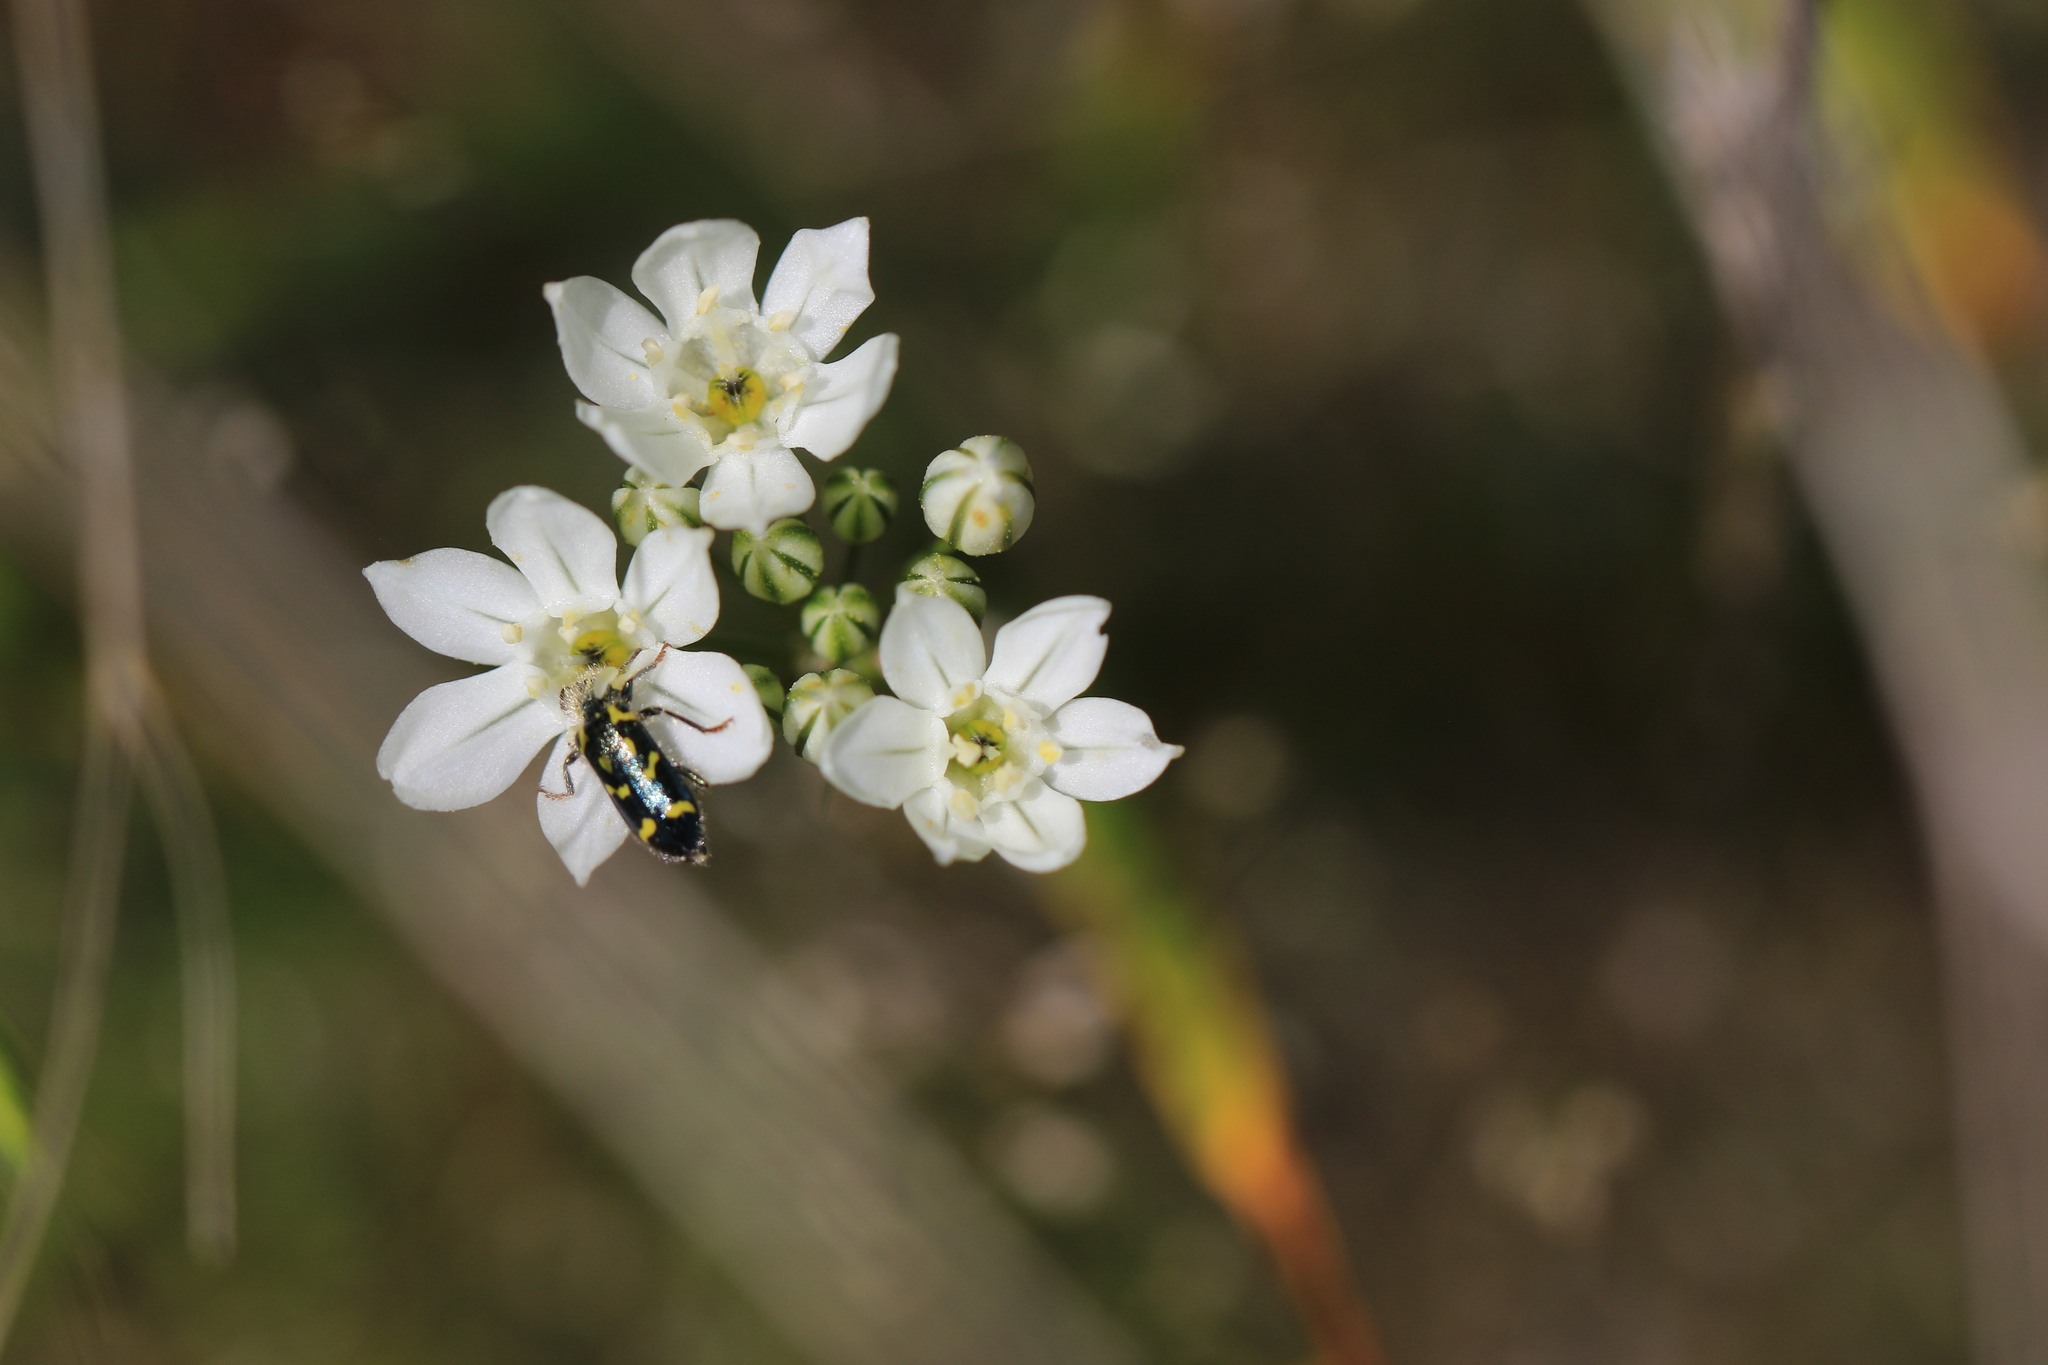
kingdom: Plantae
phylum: Tracheophyta
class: Liliopsida
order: Asparagales
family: Asparagaceae
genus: Triteleia
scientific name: Triteleia hyacinthina
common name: White brodiaea
